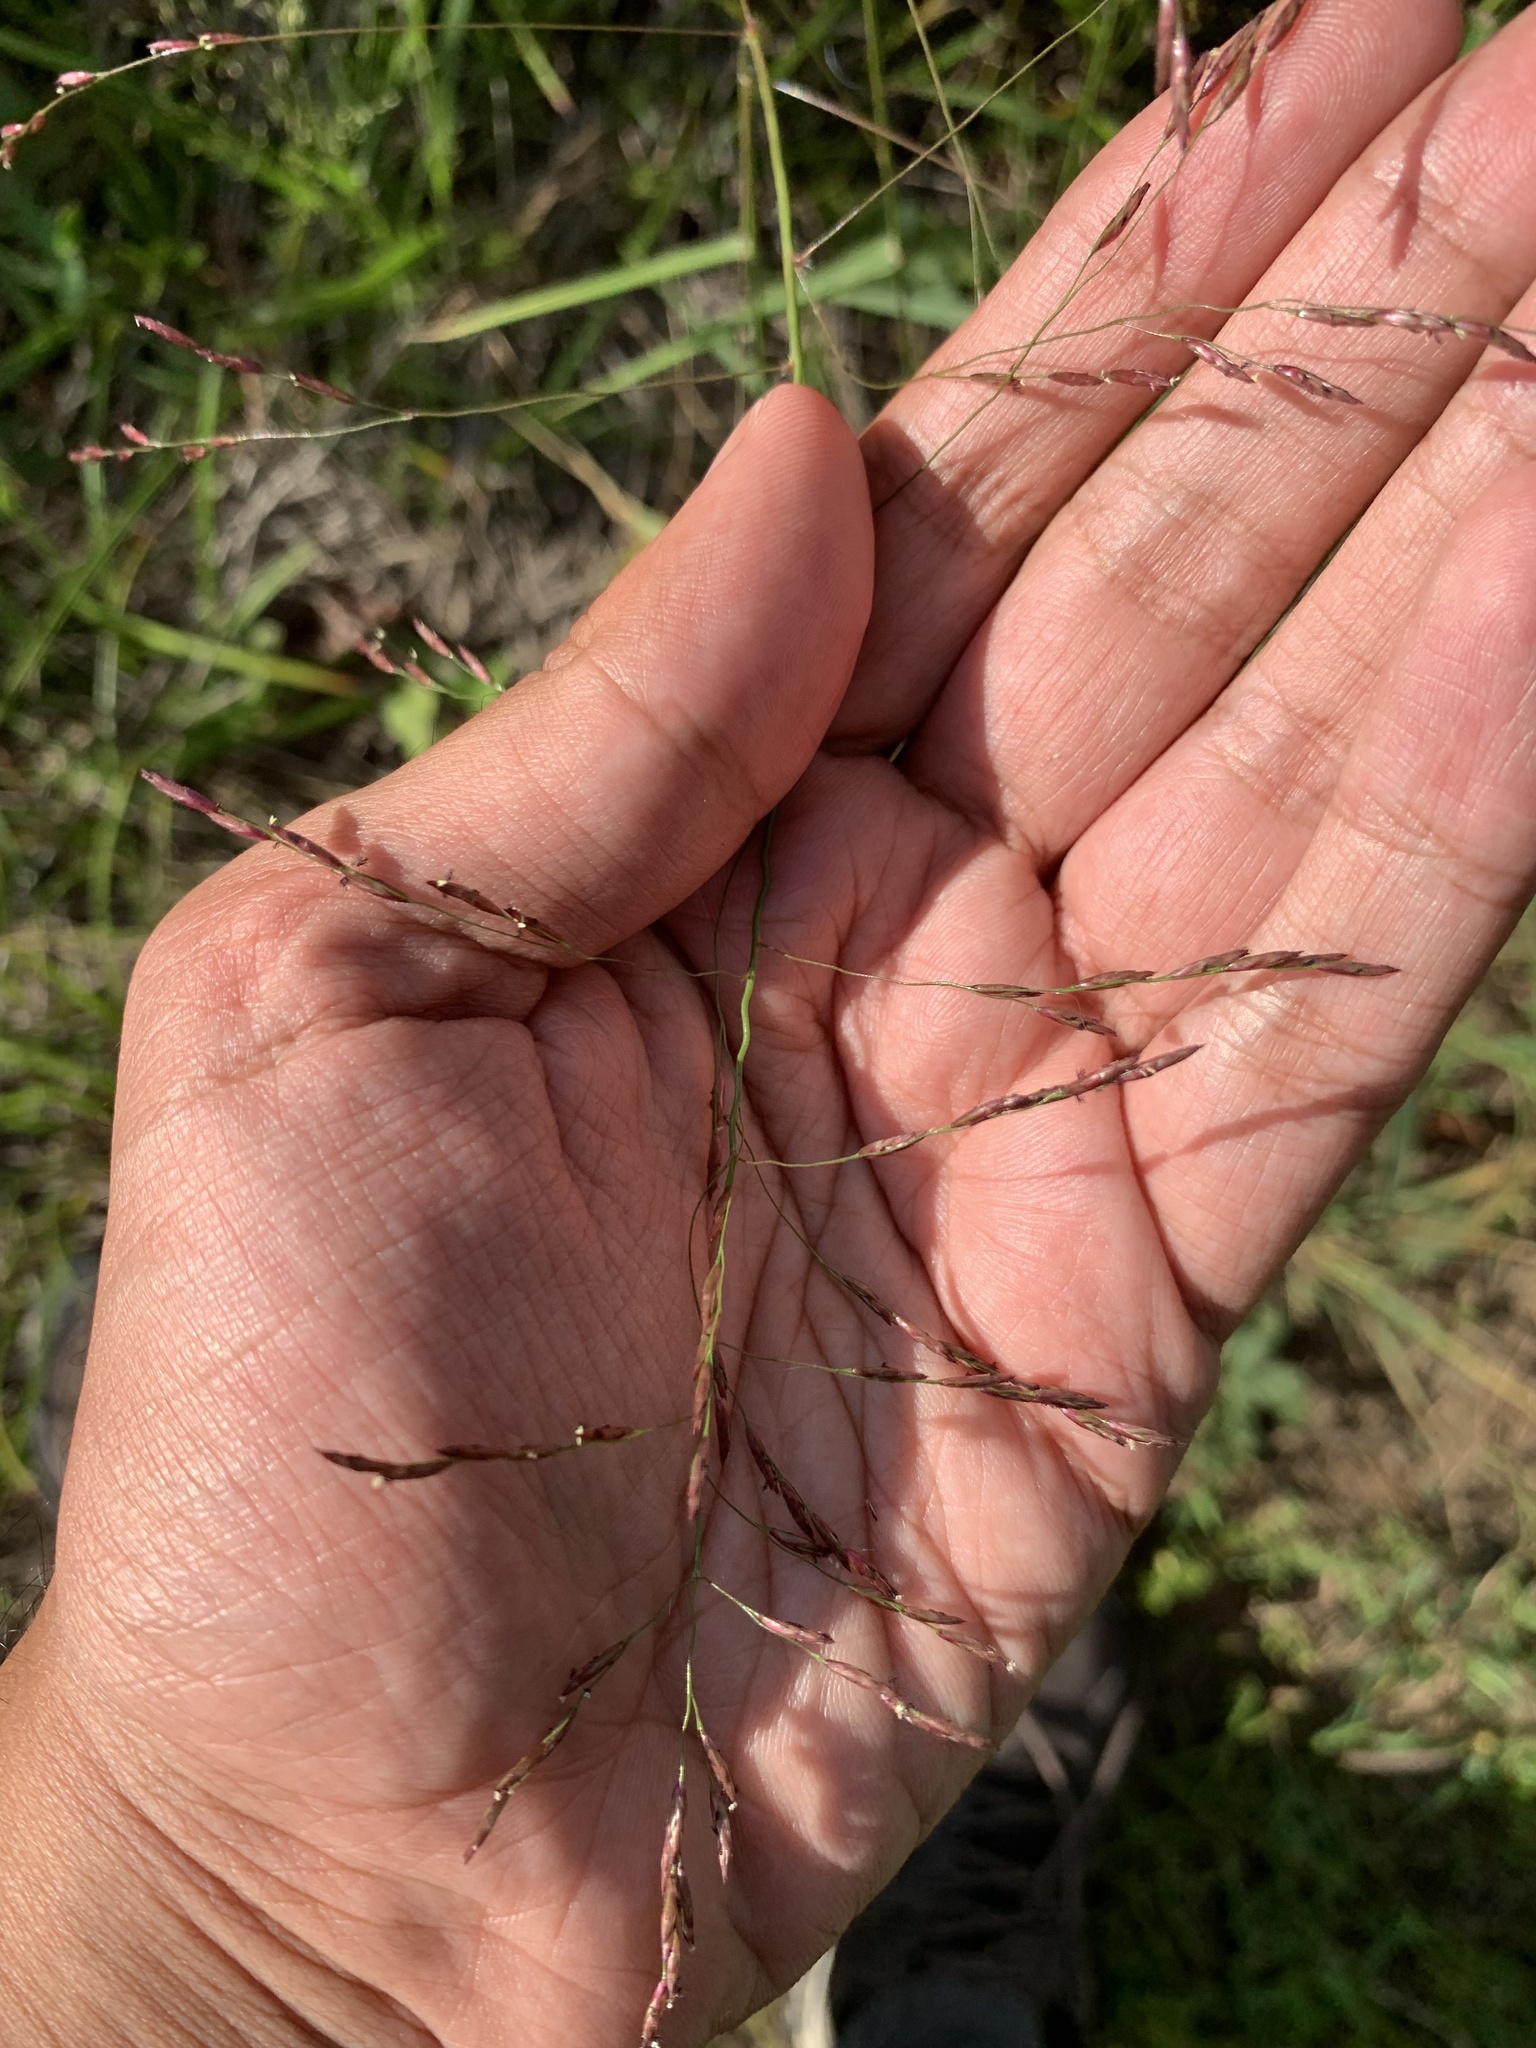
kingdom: Plantae
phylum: Tracheophyta
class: Liliopsida
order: Poales
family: Poaceae
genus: Tridens
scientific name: Tridens flavus
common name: Purpletop
